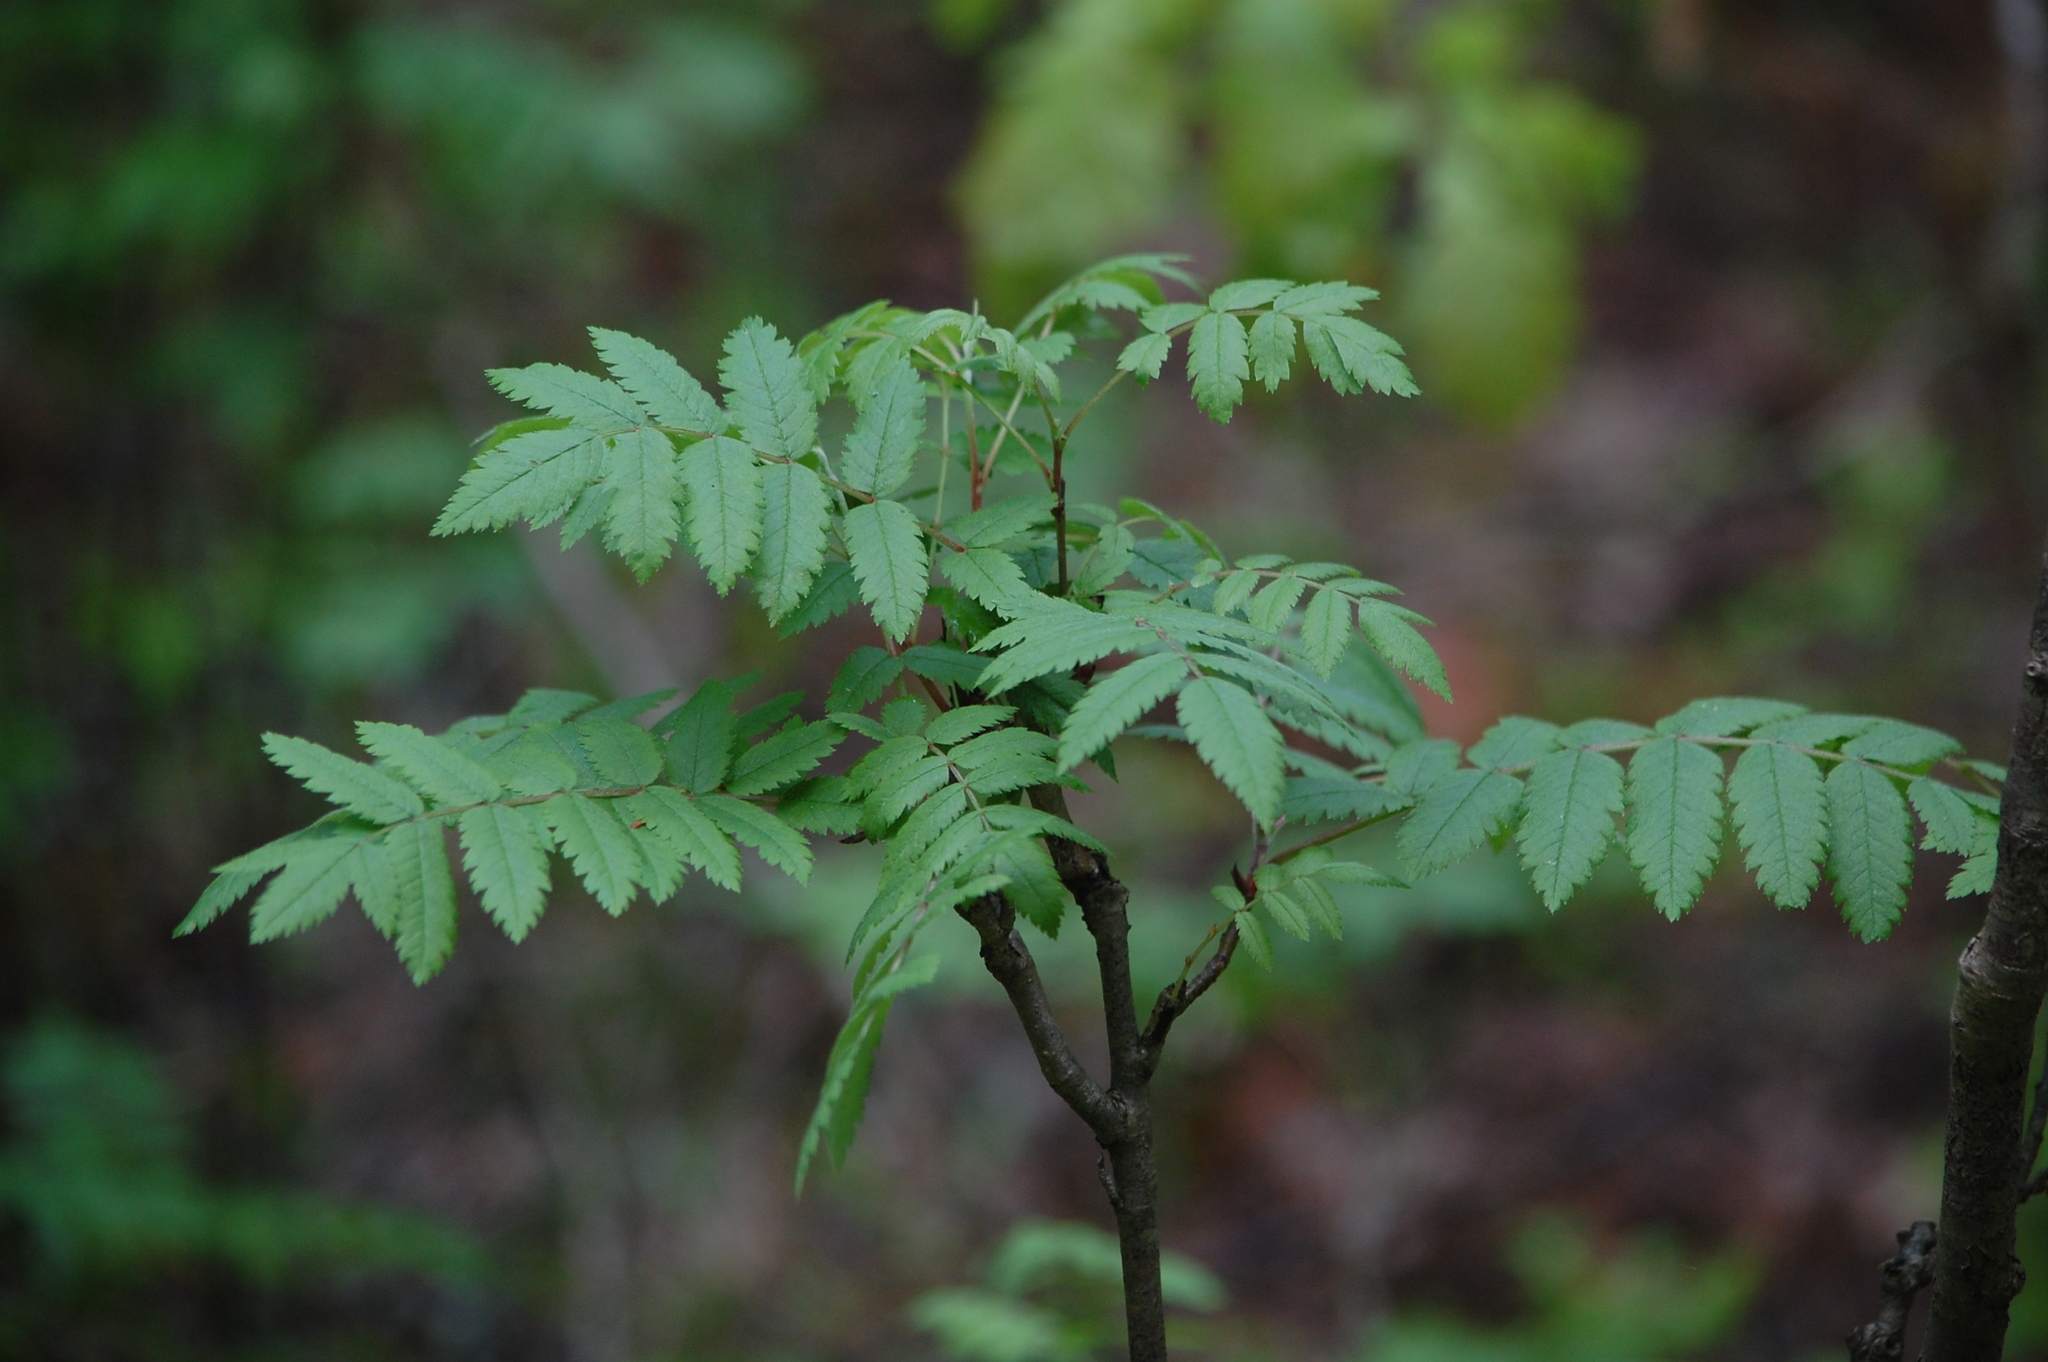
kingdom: Plantae
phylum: Tracheophyta
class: Magnoliopsida
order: Rosales
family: Rosaceae
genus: Sorbus
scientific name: Sorbus aucuparia
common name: Rowan
